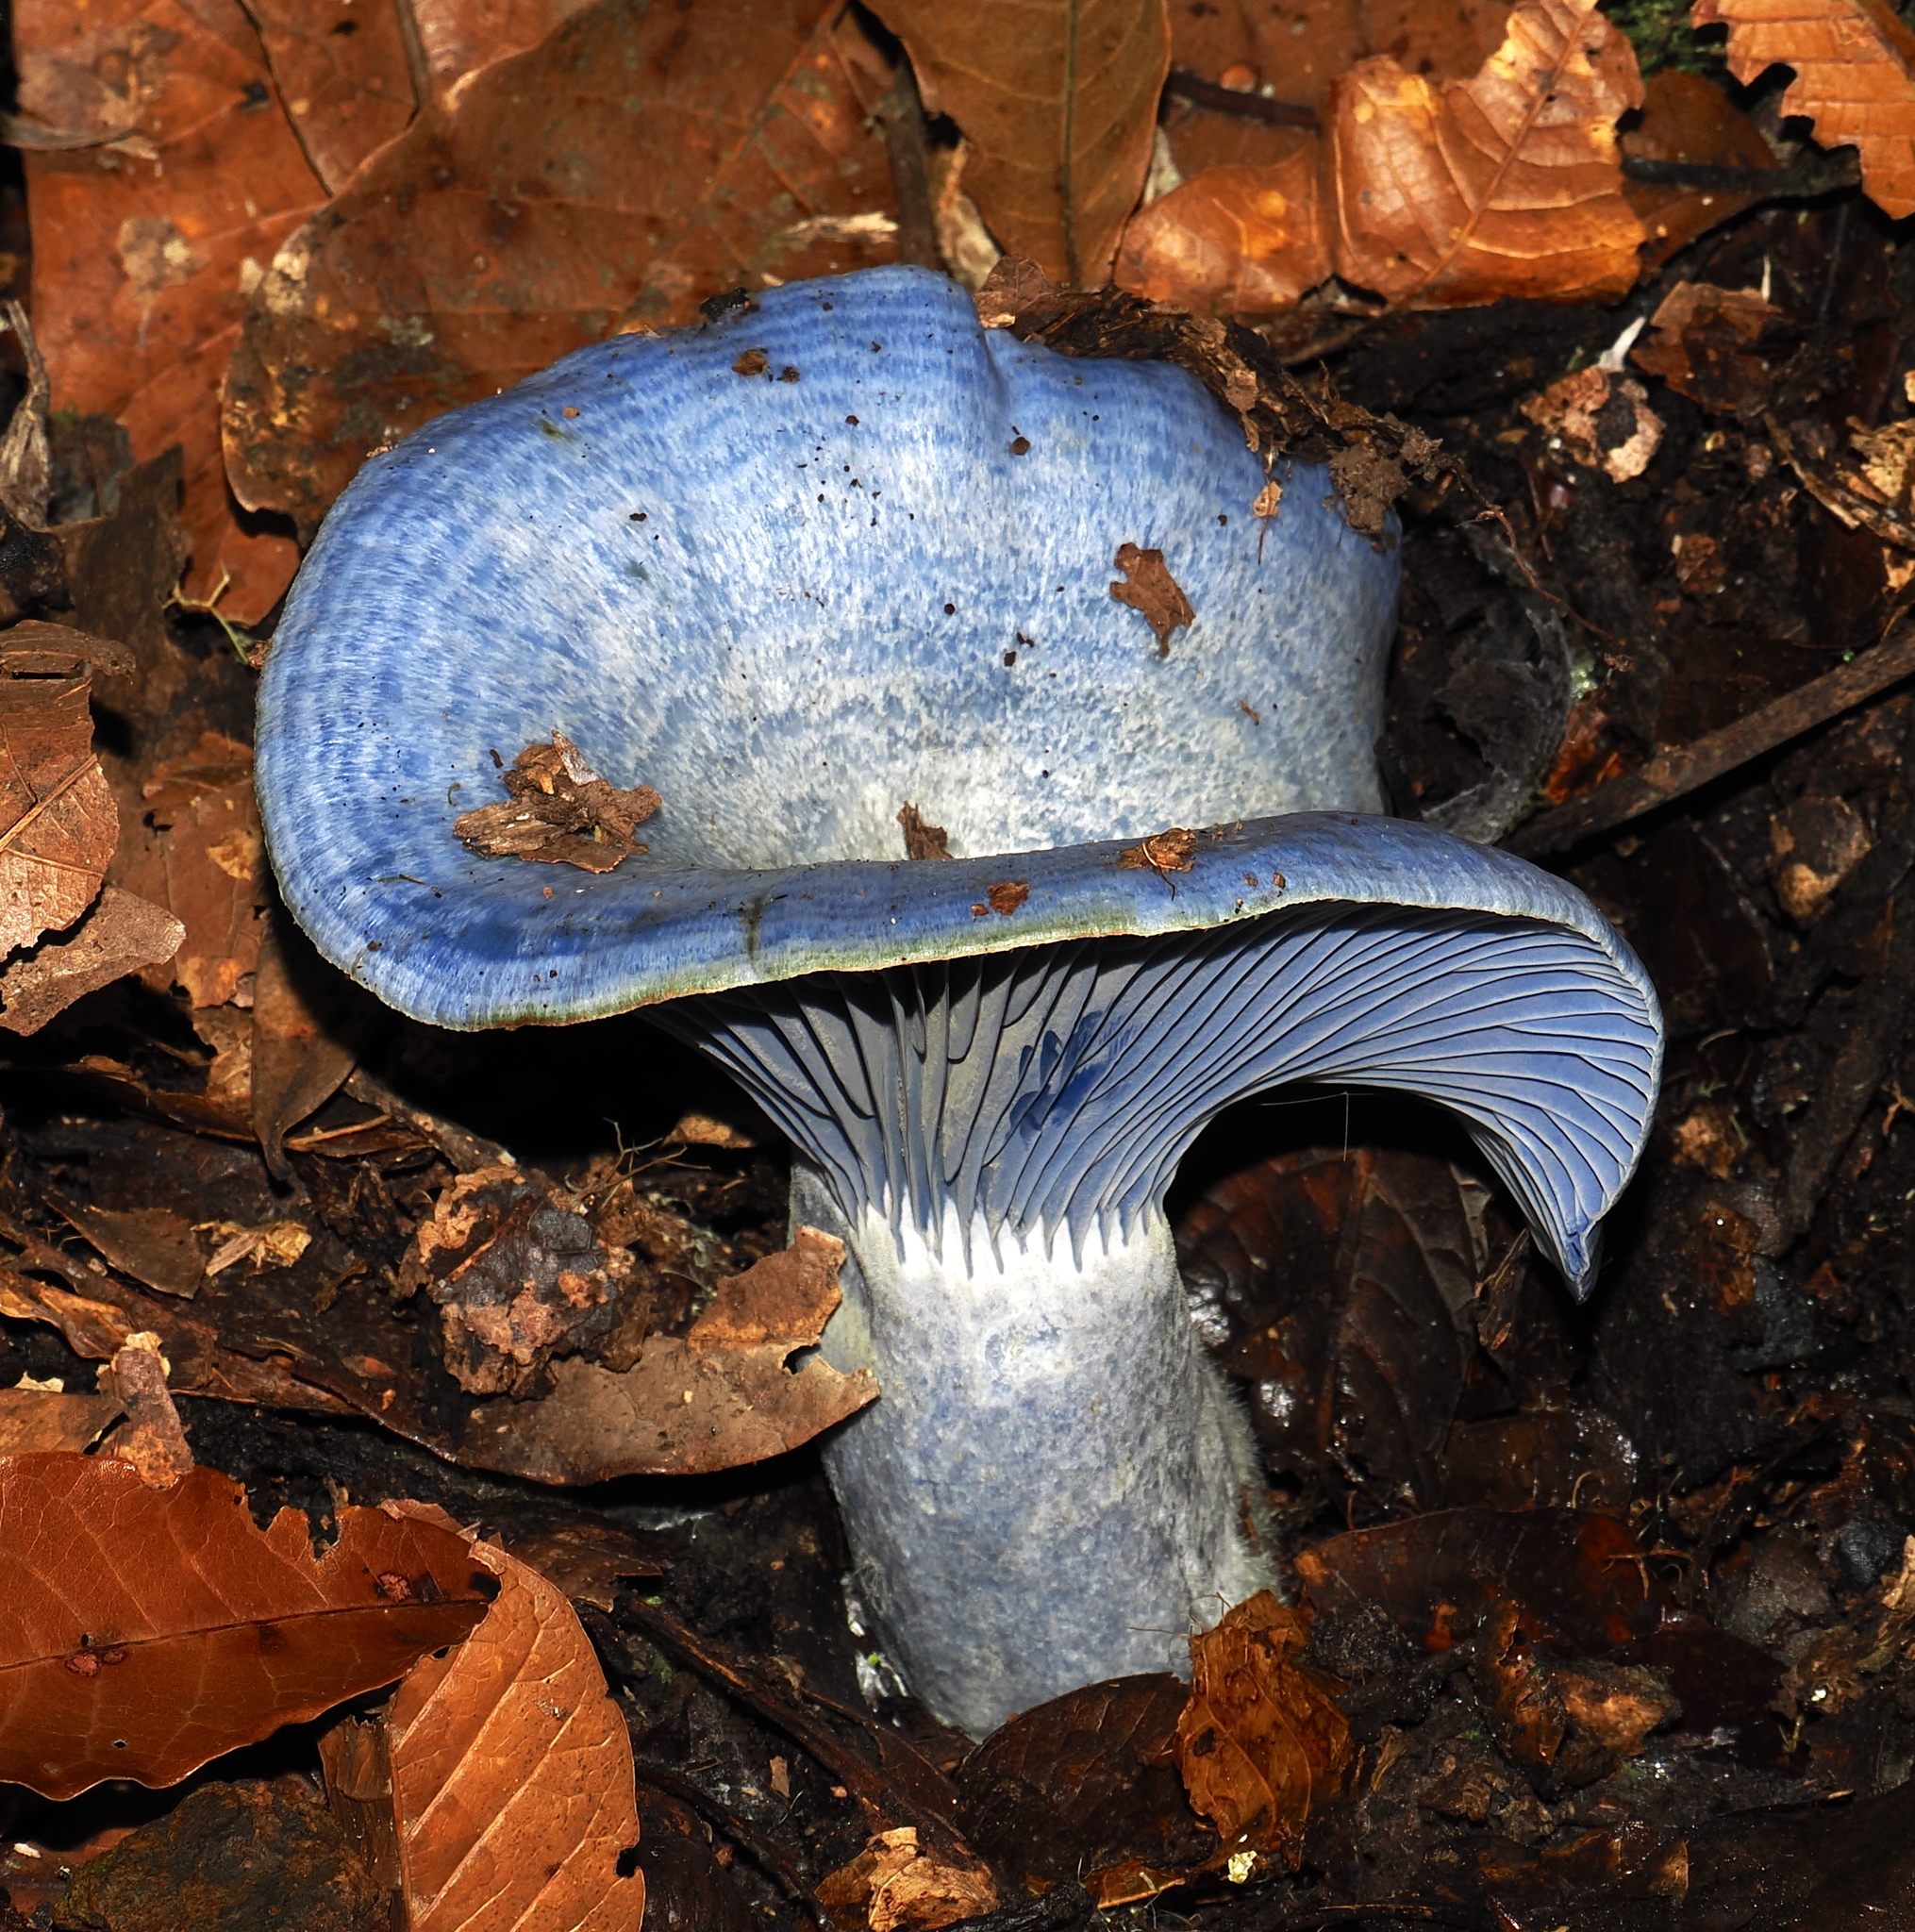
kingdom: Fungi
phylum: Basidiomycota
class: Agaricomycetes
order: Russulales
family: Russulaceae
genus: Lactarius
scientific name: Lactarius indigo
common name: Indigo milk cap
